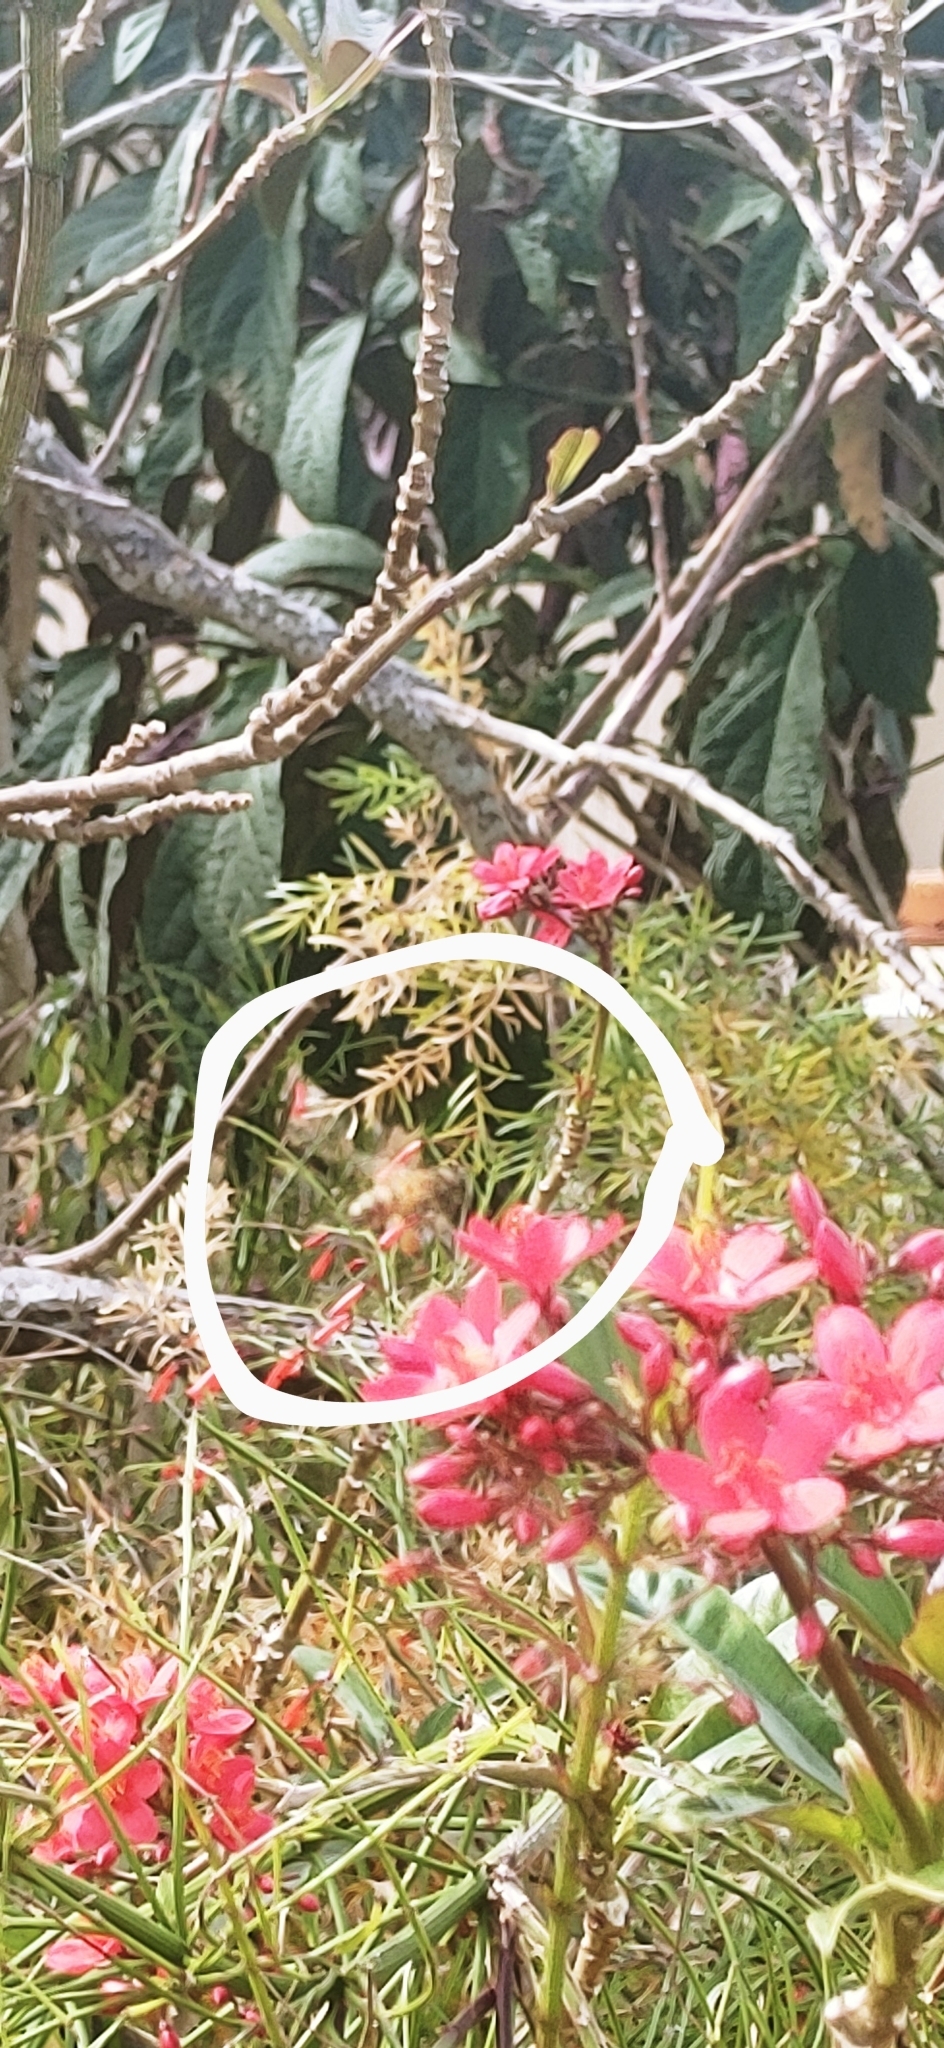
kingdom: Animalia
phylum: Arthropoda
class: Insecta
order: Hymenoptera
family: Apidae
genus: Apis
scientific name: Apis mellifera
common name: Honey bee
